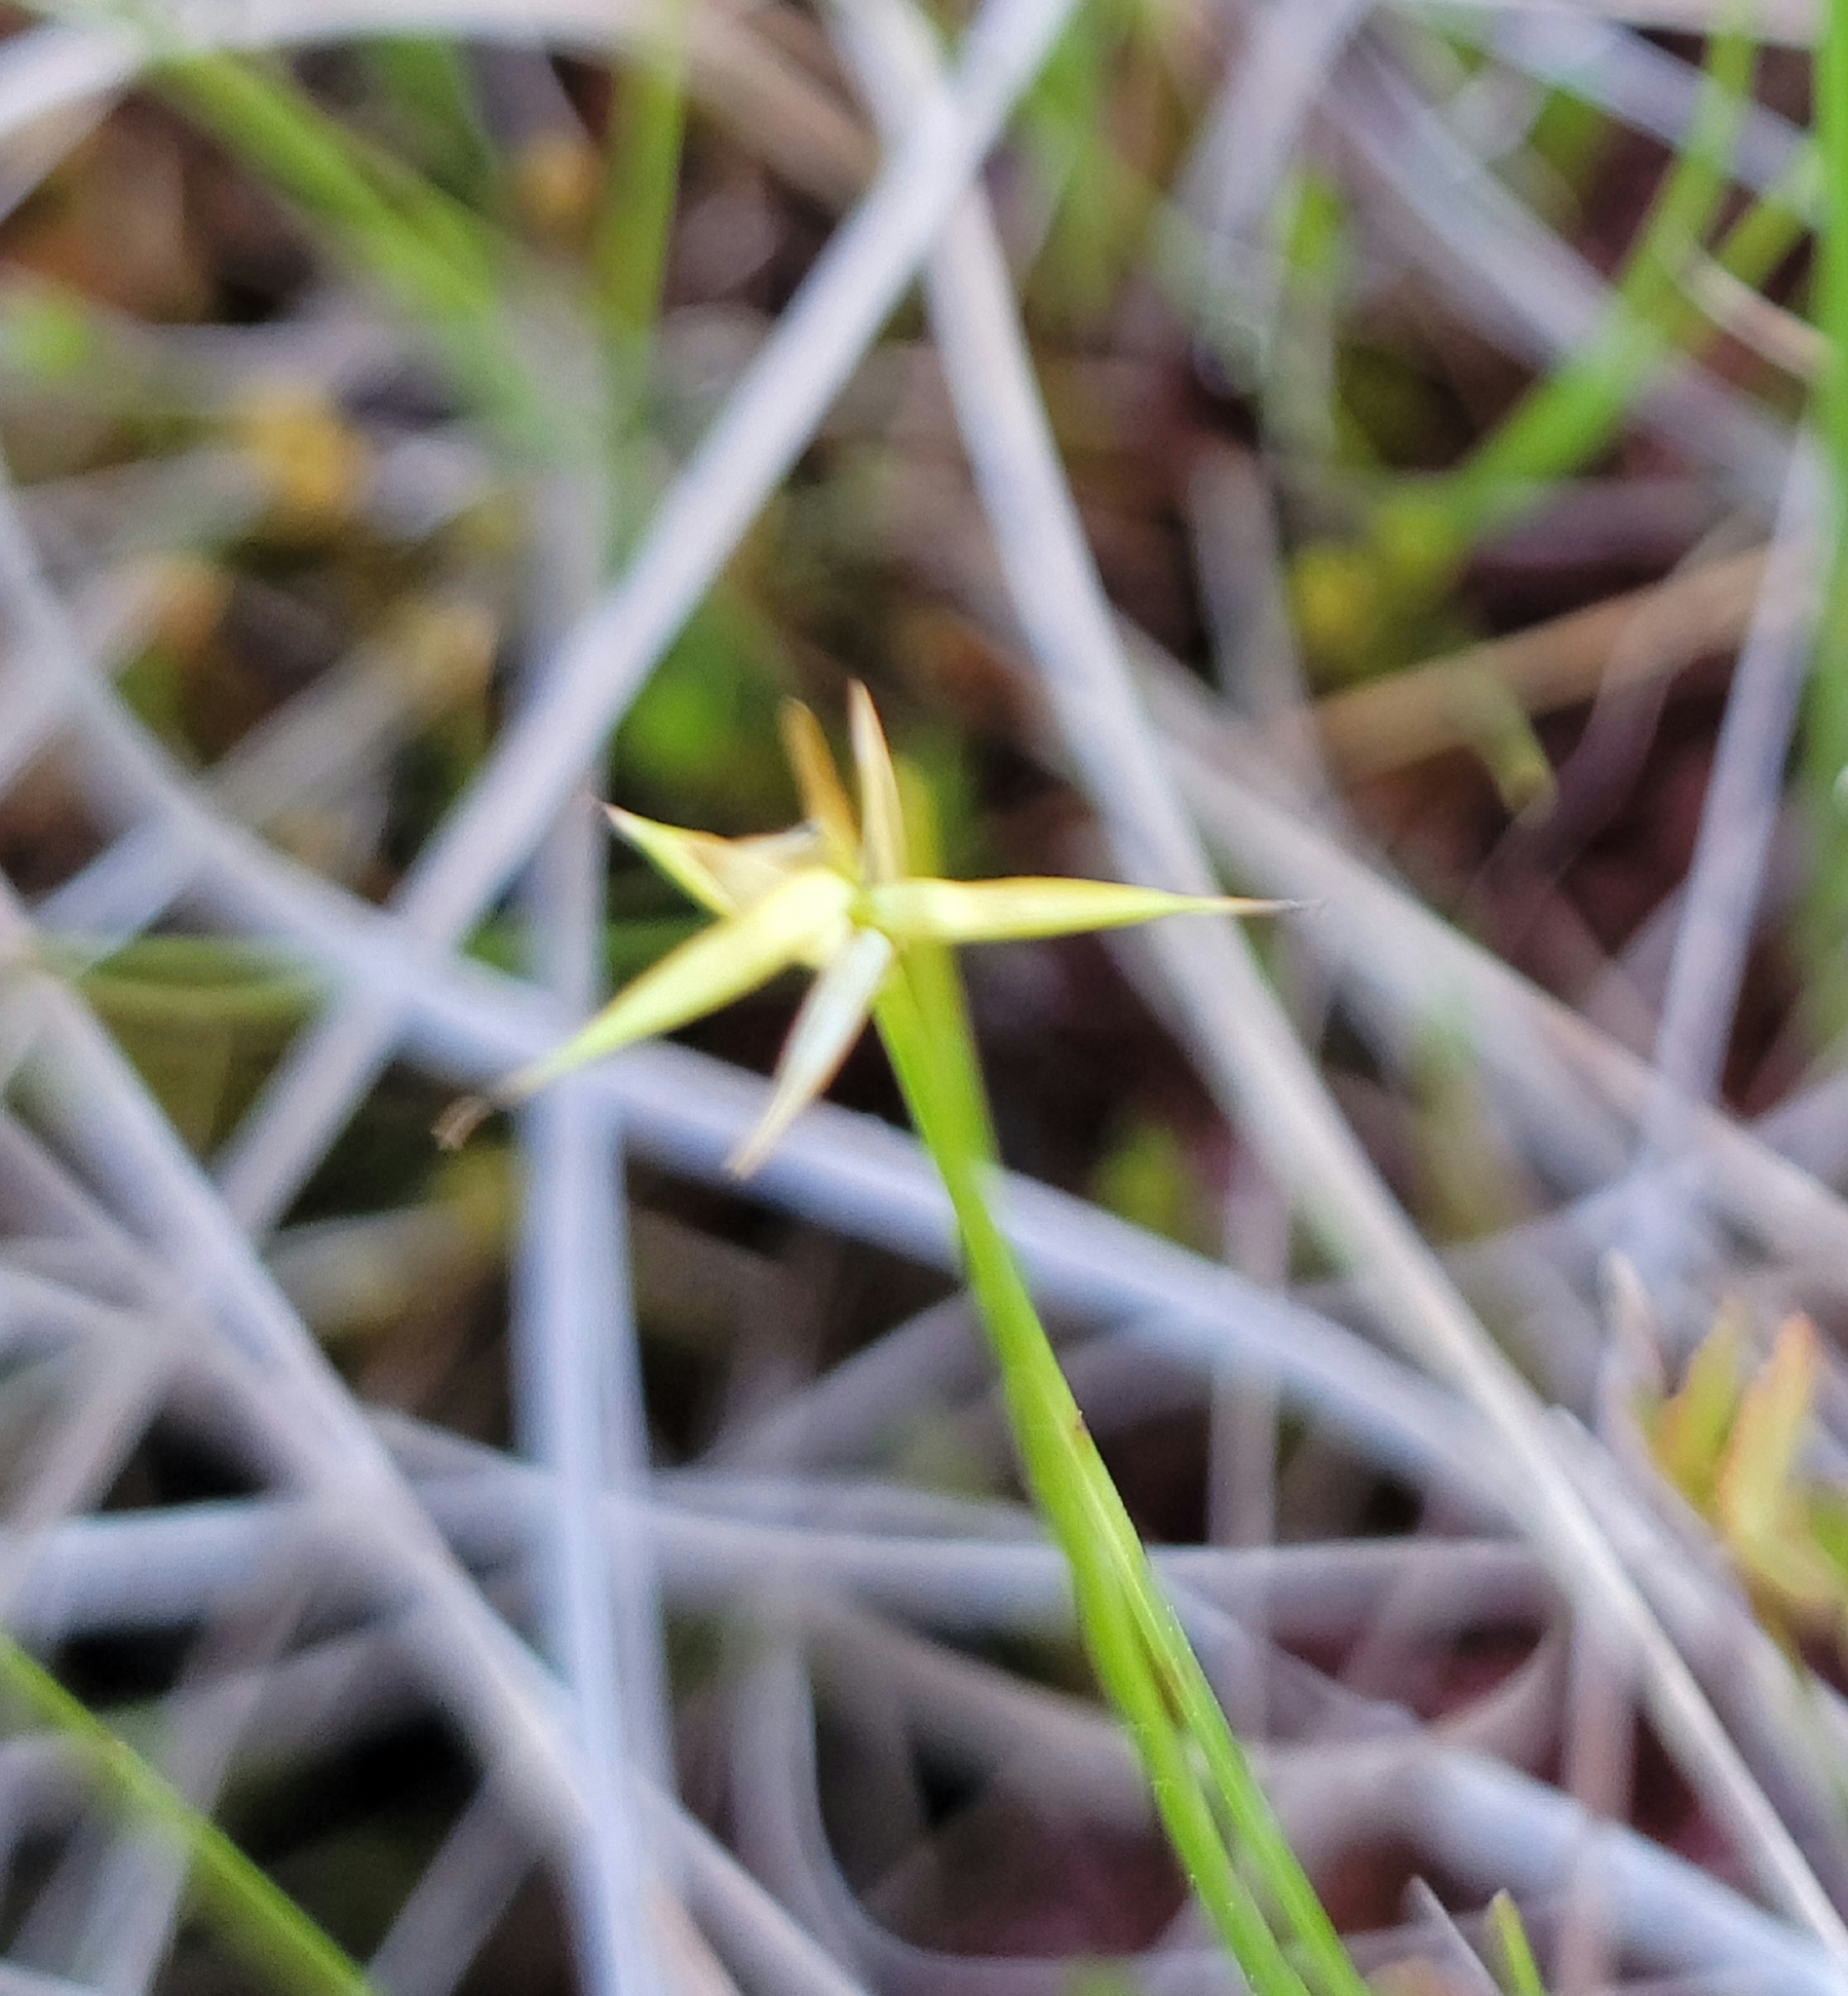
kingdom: Plantae
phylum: Tracheophyta
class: Liliopsida
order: Poales
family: Cyperaceae
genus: Carex
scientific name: Carex pauciflora
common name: Few-flowered sedge
